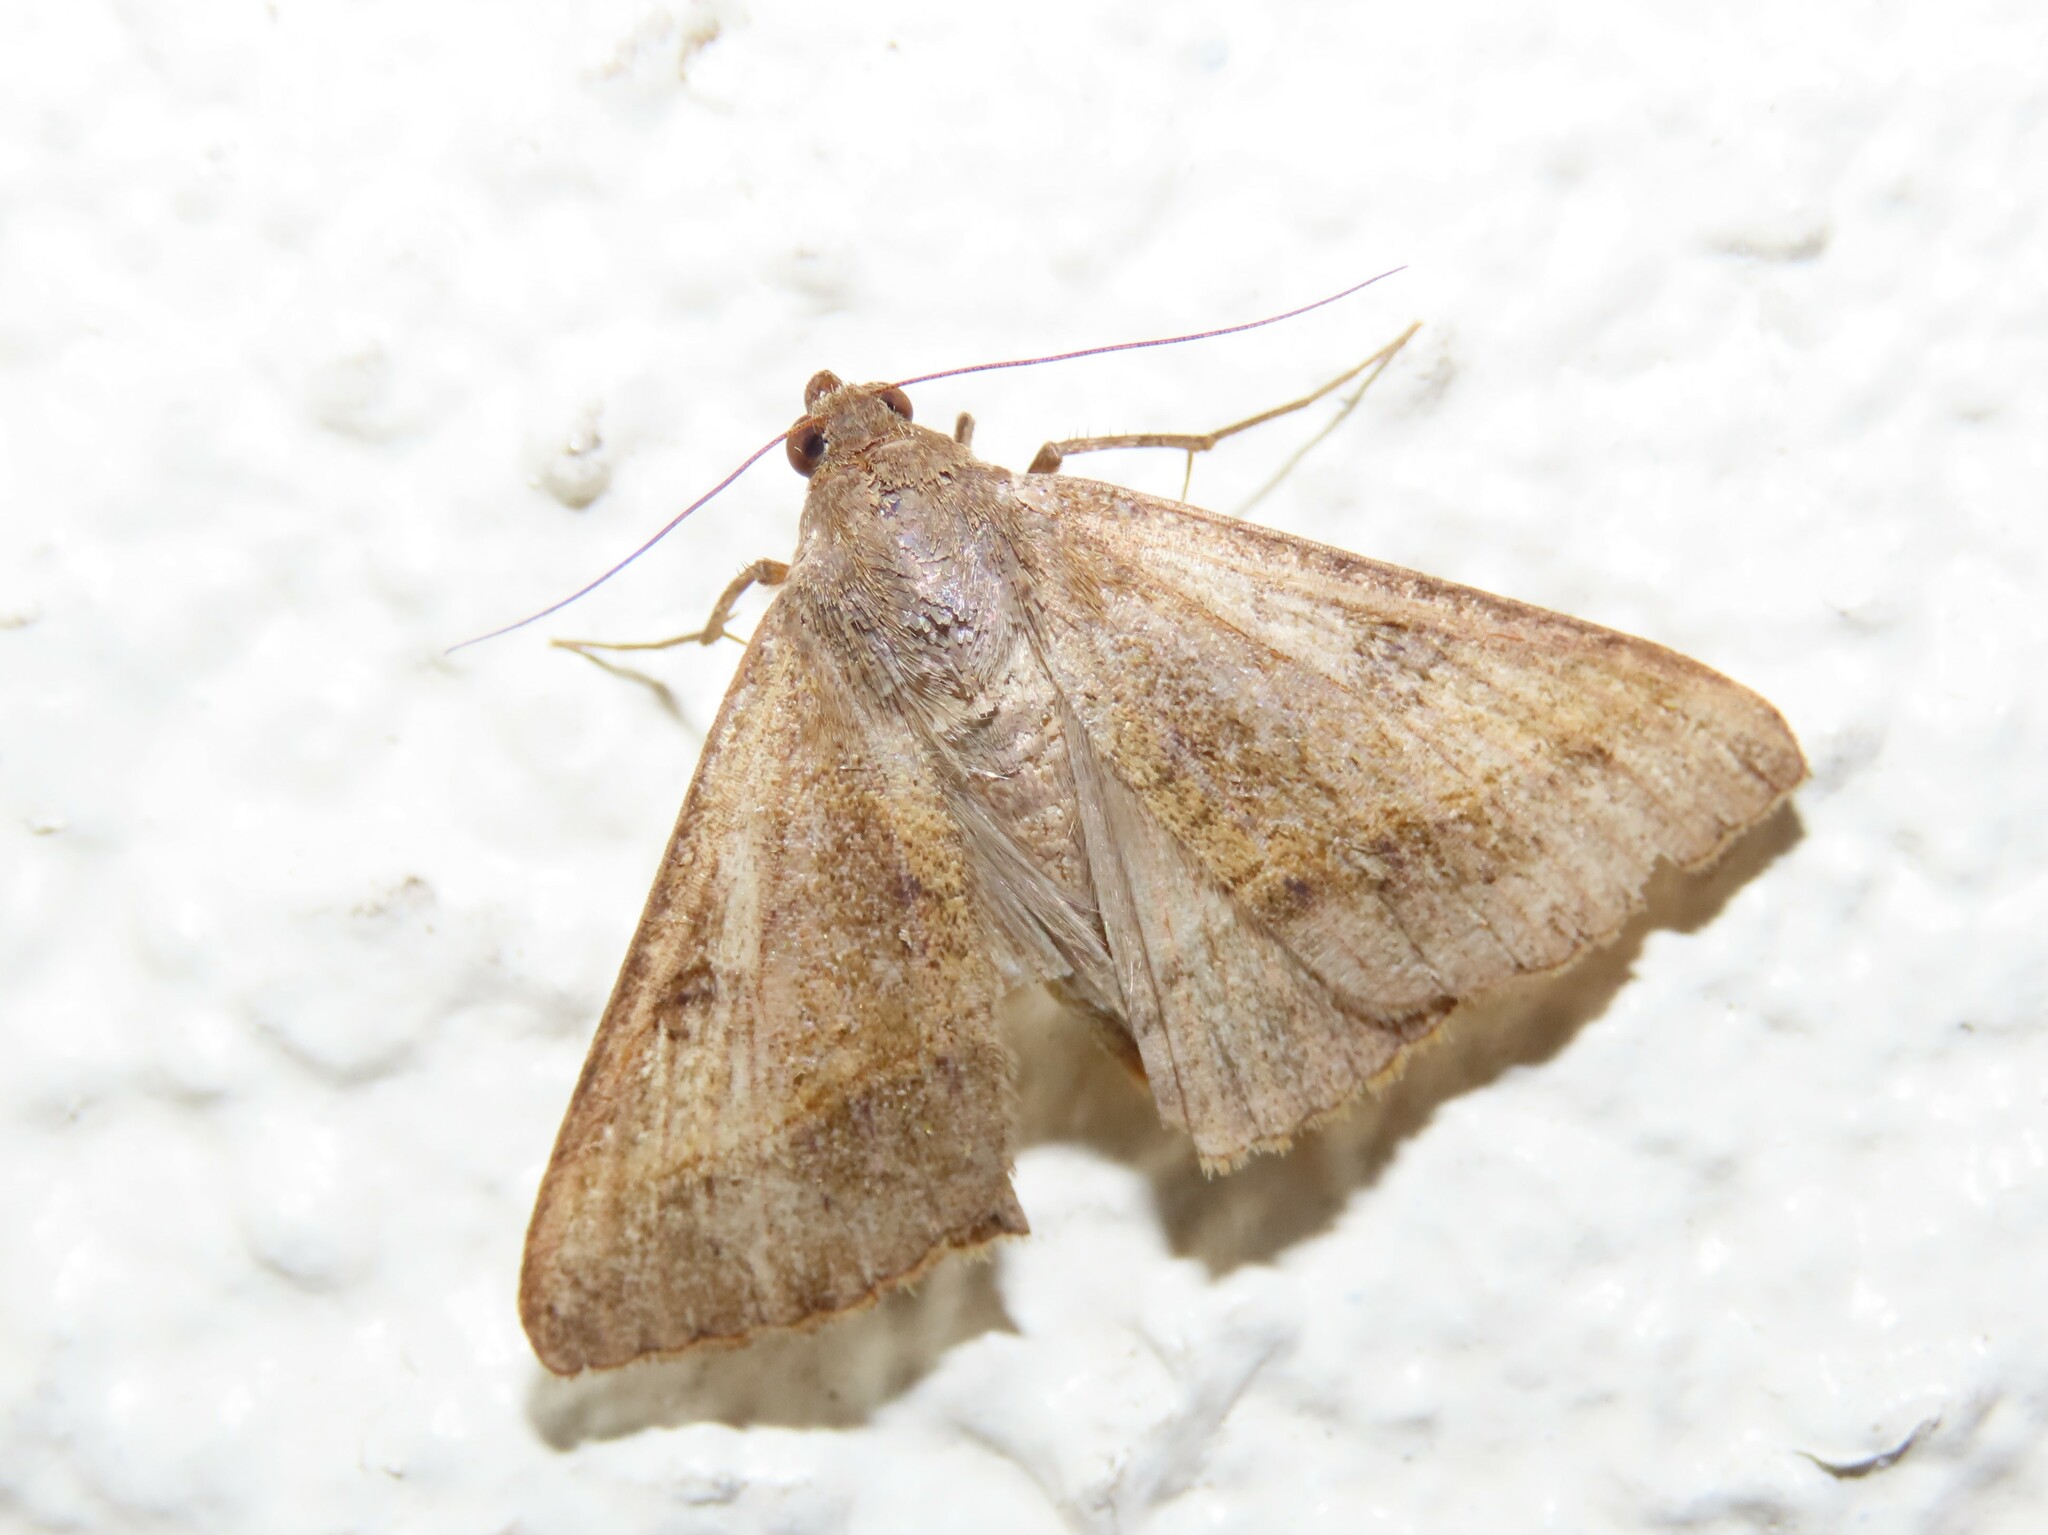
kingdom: Animalia
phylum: Arthropoda
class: Insecta
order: Lepidoptera
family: Erebidae
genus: Mocis
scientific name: Mocis texana
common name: Texas mocis moth
